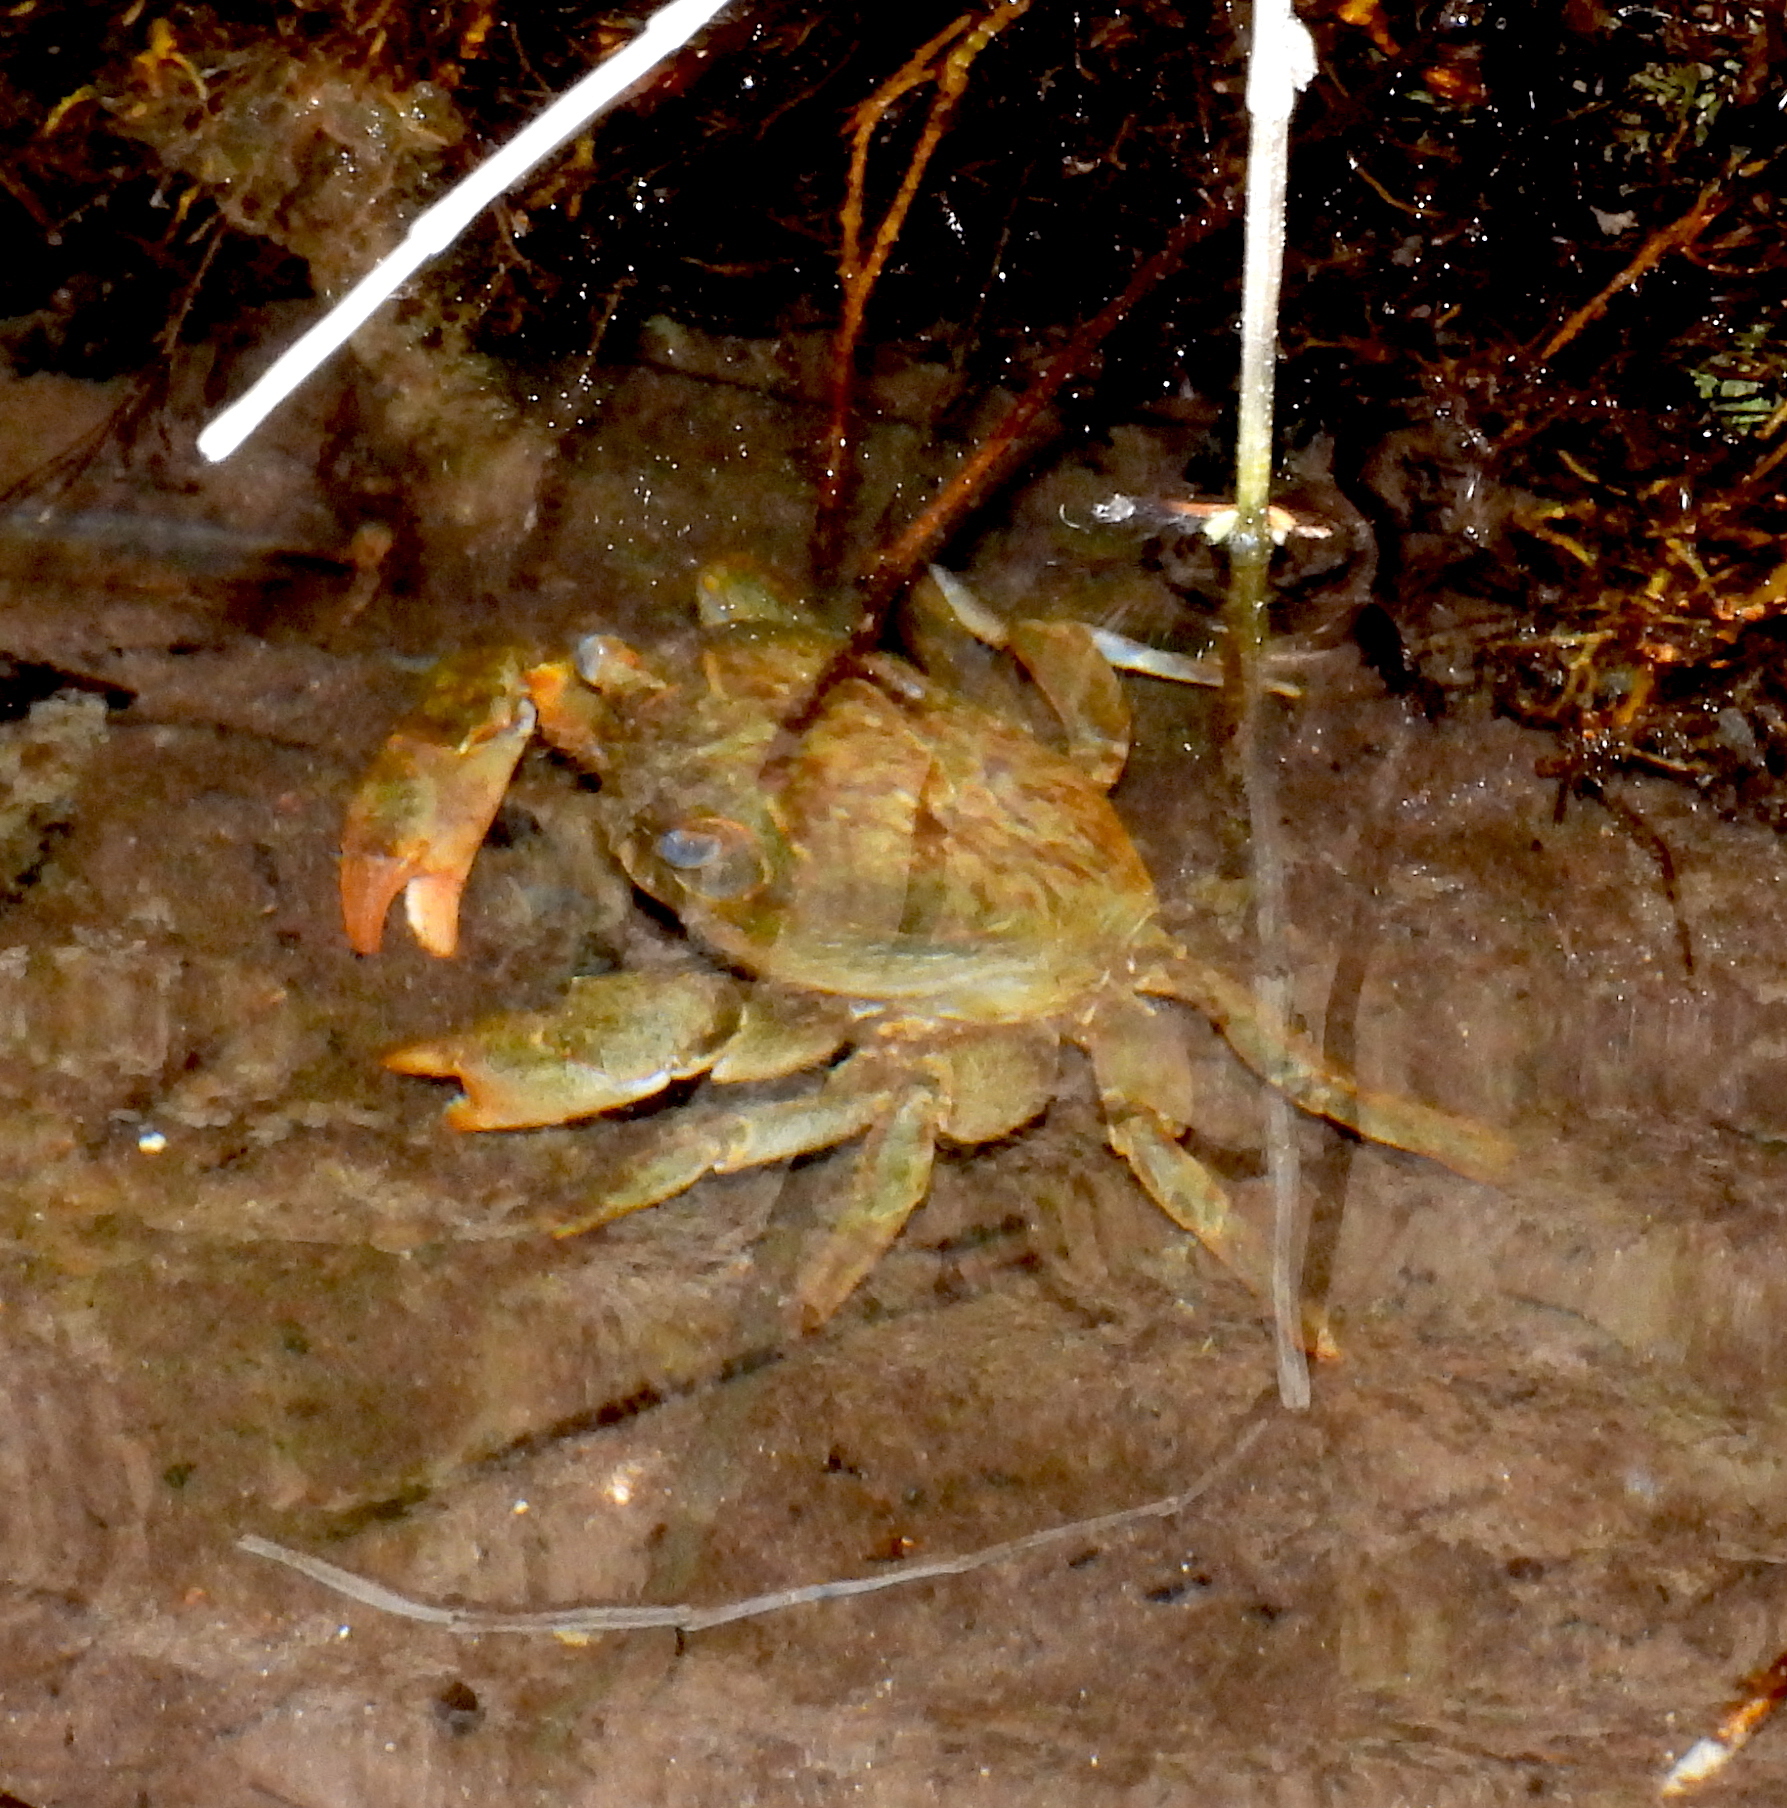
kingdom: Animalia
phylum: Arthropoda
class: Malacostraca
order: Decapoda
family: Potamidae
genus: Potamon
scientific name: Potamon hippocratis
